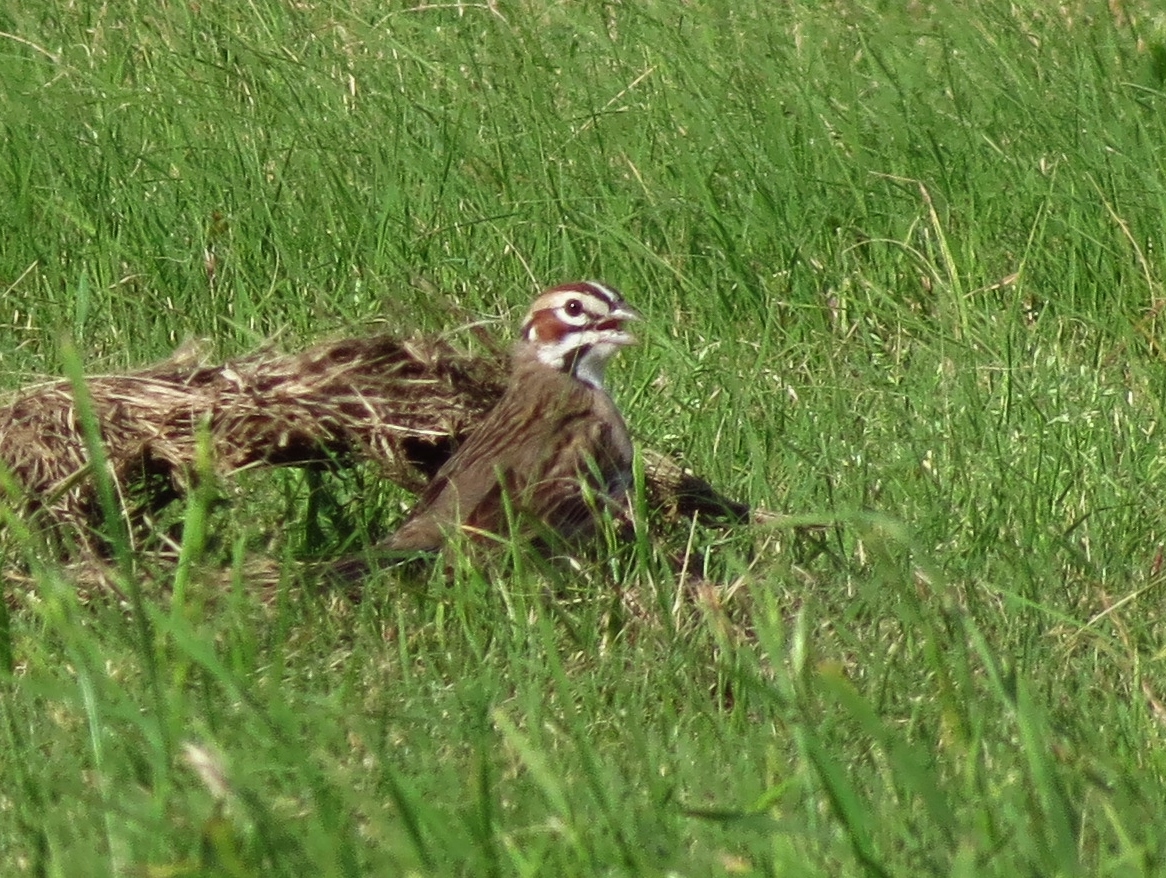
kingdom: Animalia
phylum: Chordata
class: Aves
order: Passeriformes
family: Passerellidae
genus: Chondestes
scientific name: Chondestes grammacus
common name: Lark sparrow
